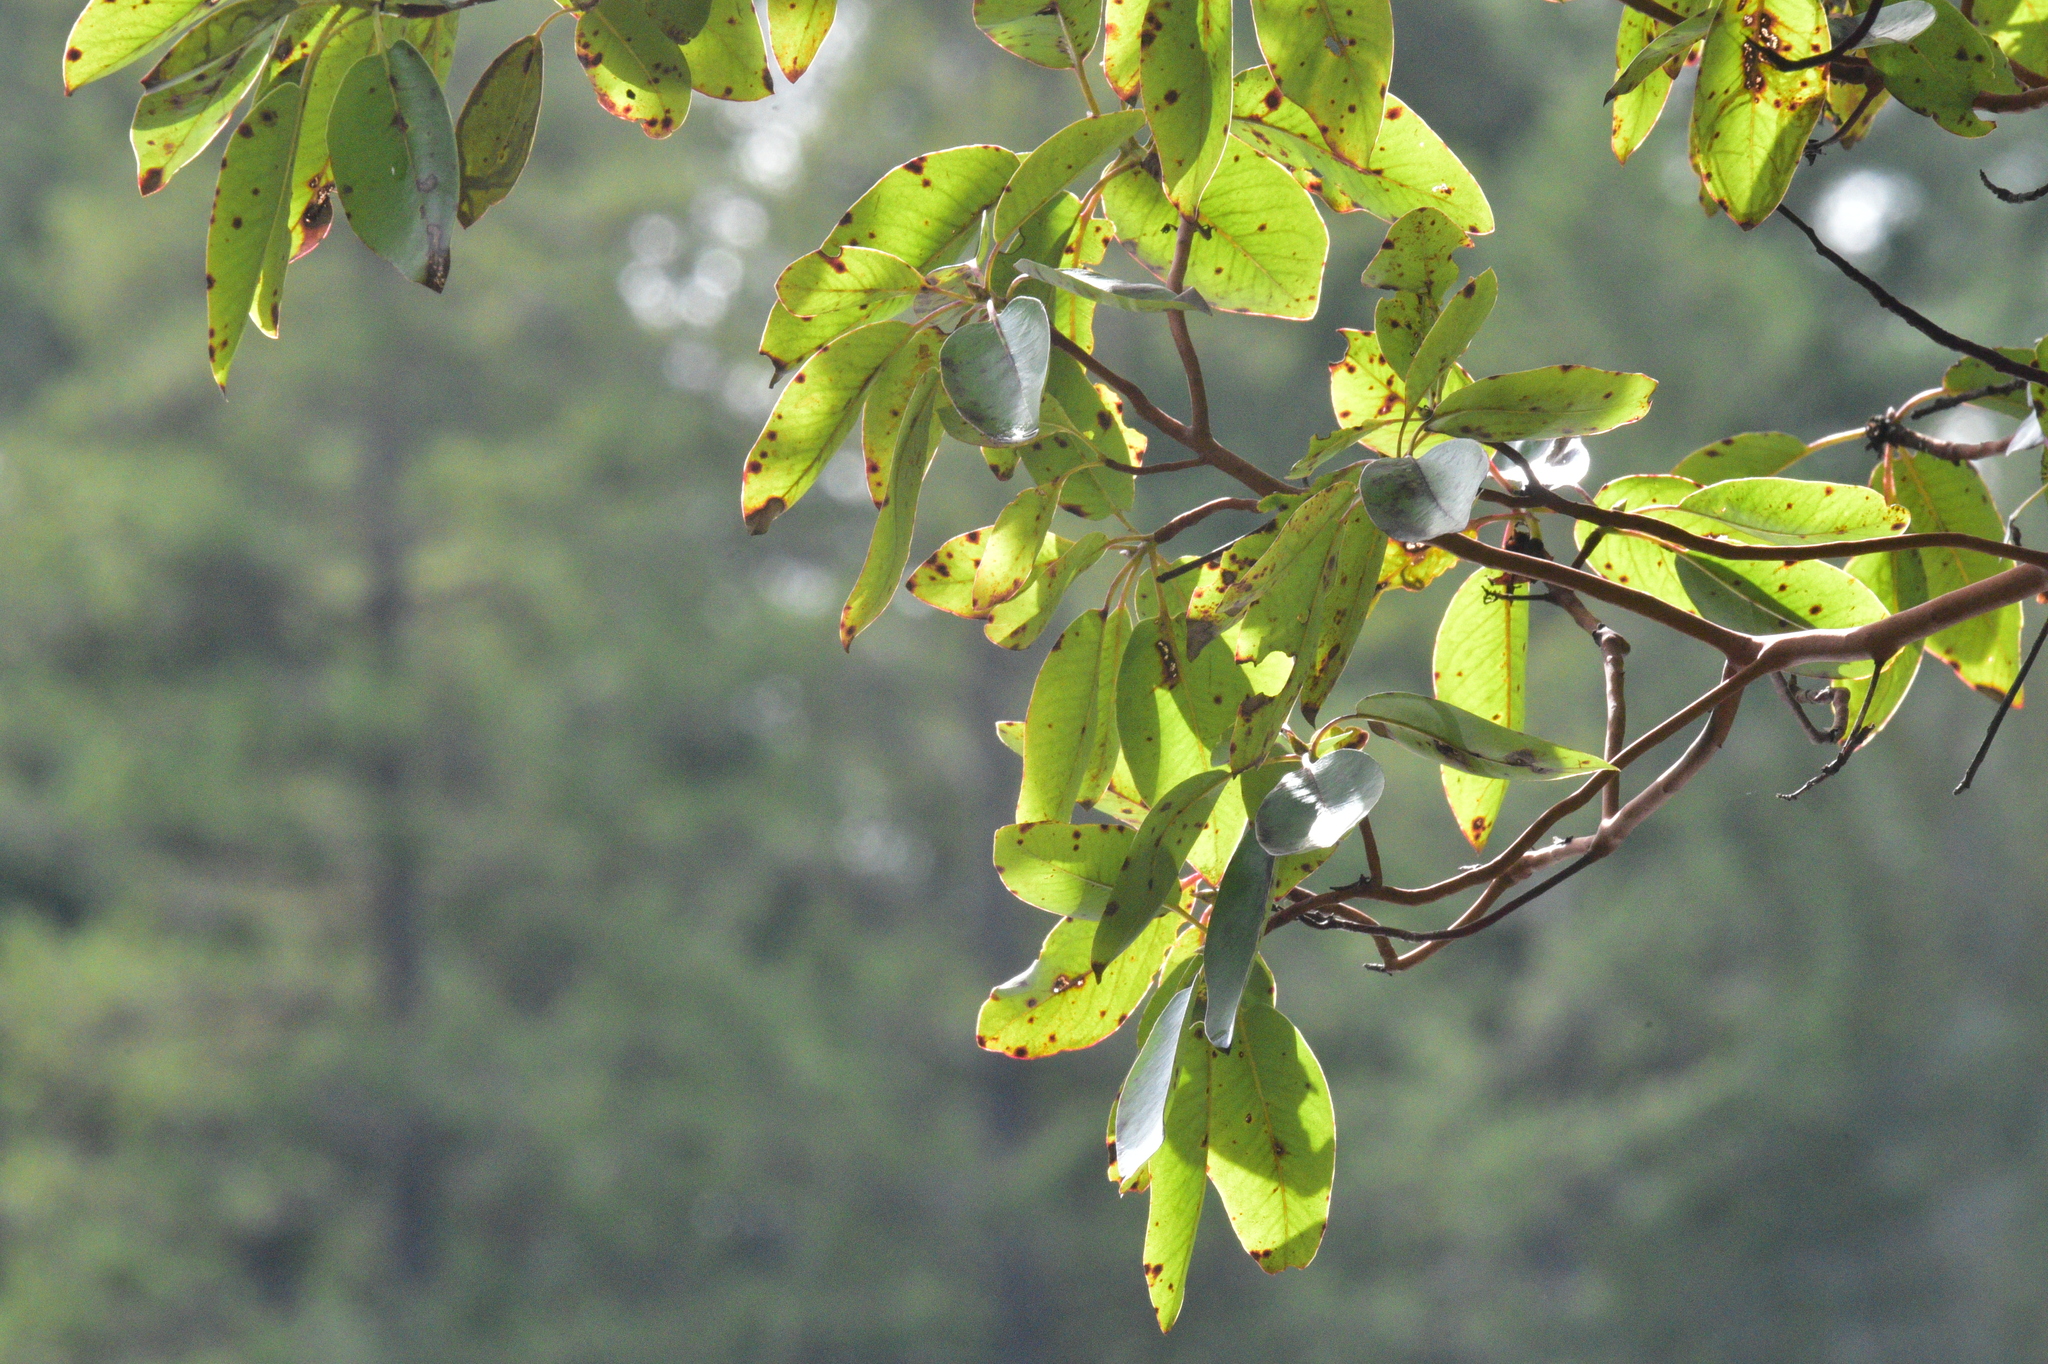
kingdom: Plantae
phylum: Tracheophyta
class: Magnoliopsida
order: Ericales
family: Ericaceae
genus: Arbutus
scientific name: Arbutus menziesii
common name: Pacific madrone
